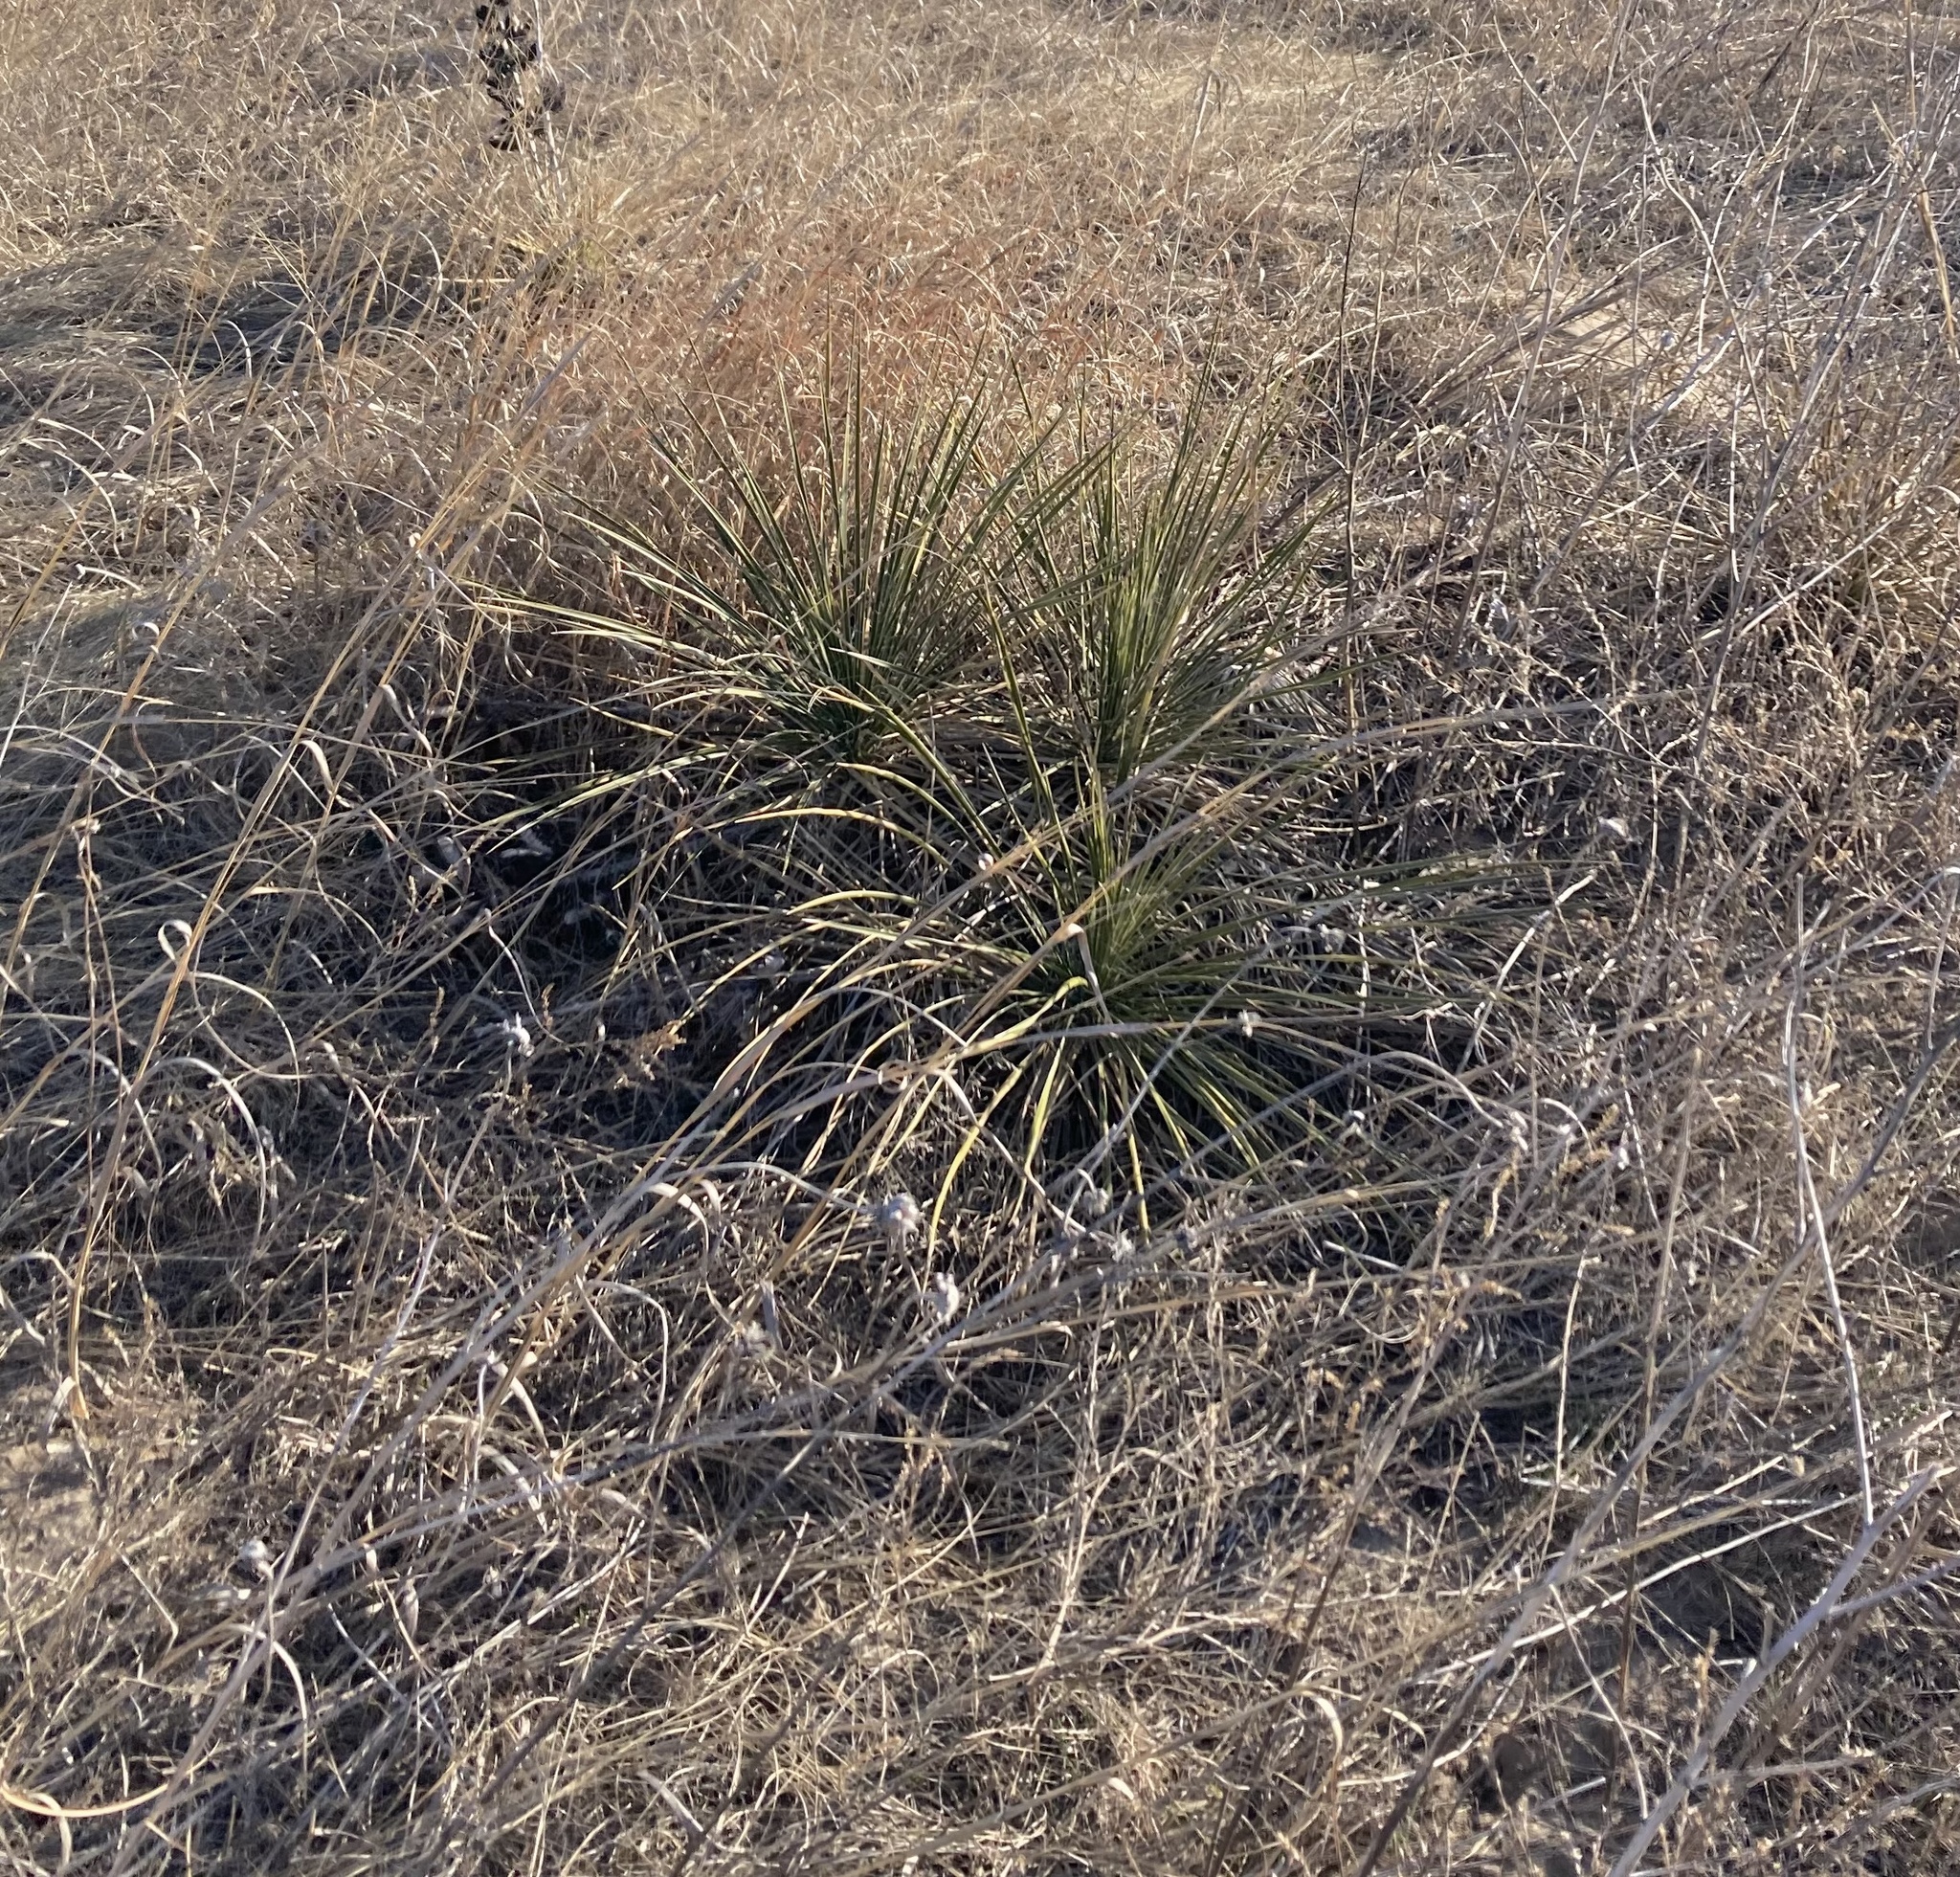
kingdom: Plantae
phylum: Tracheophyta
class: Liliopsida
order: Asparagales
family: Asparagaceae
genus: Yucca
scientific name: Yucca glauca
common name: Great plains yucca
